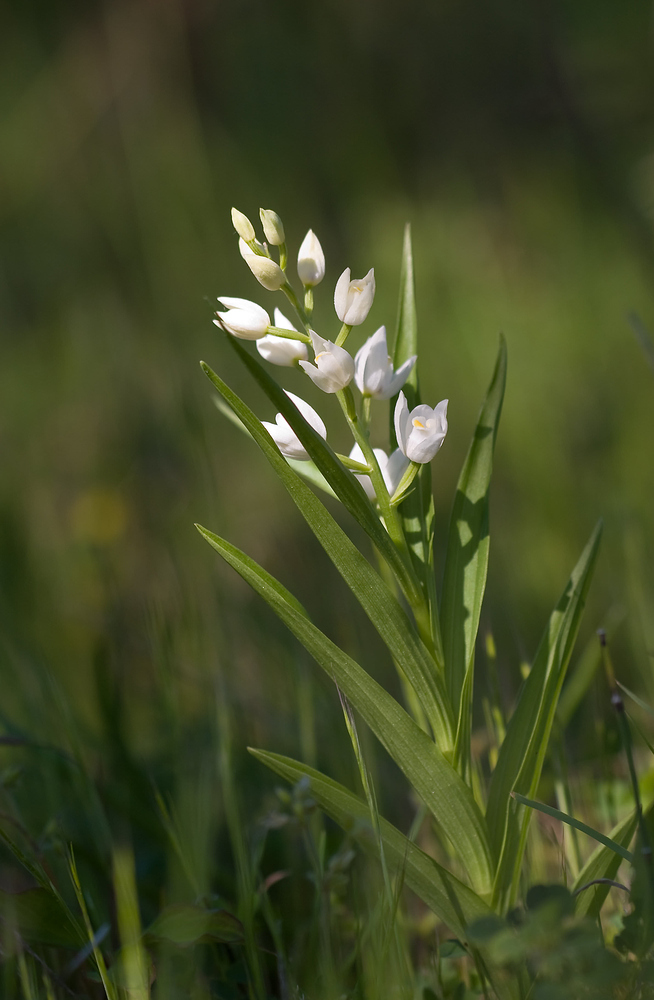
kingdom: Plantae
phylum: Tracheophyta
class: Liliopsida
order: Asparagales
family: Orchidaceae
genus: Cephalanthera
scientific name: Cephalanthera longifolia
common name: Narrow-leaved helleborine
